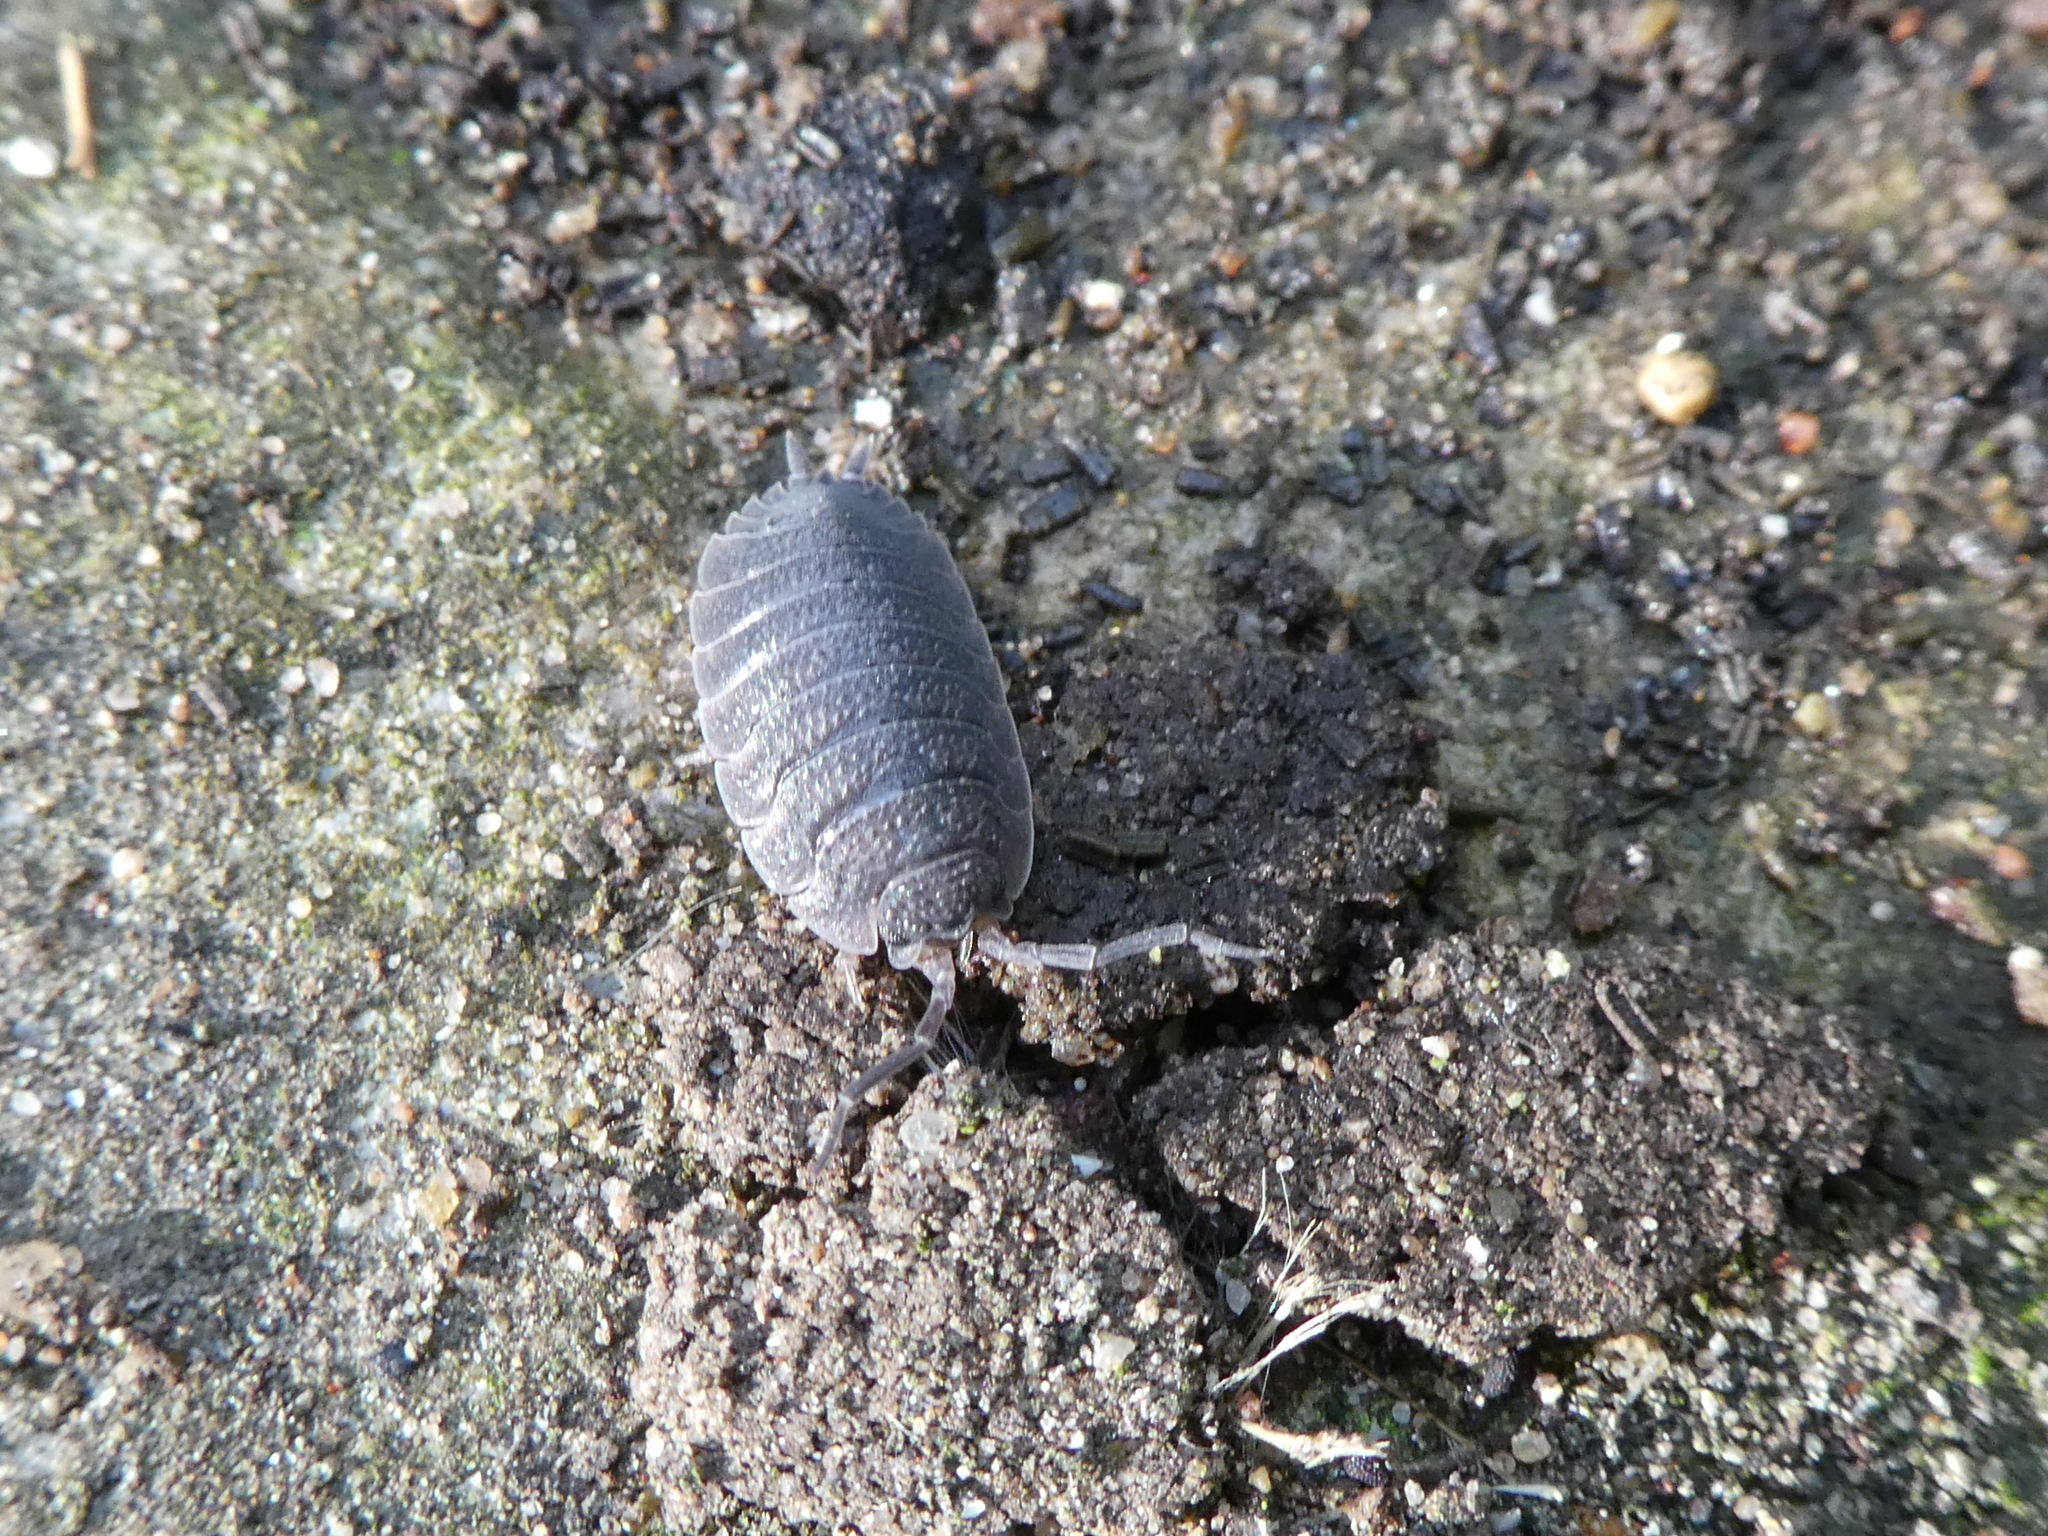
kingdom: Animalia
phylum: Arthropoda
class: Malacostraca
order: Isopoda
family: Porcellionidae
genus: Porcellio
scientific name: Porcellio scaber
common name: Common rough woodlouse
